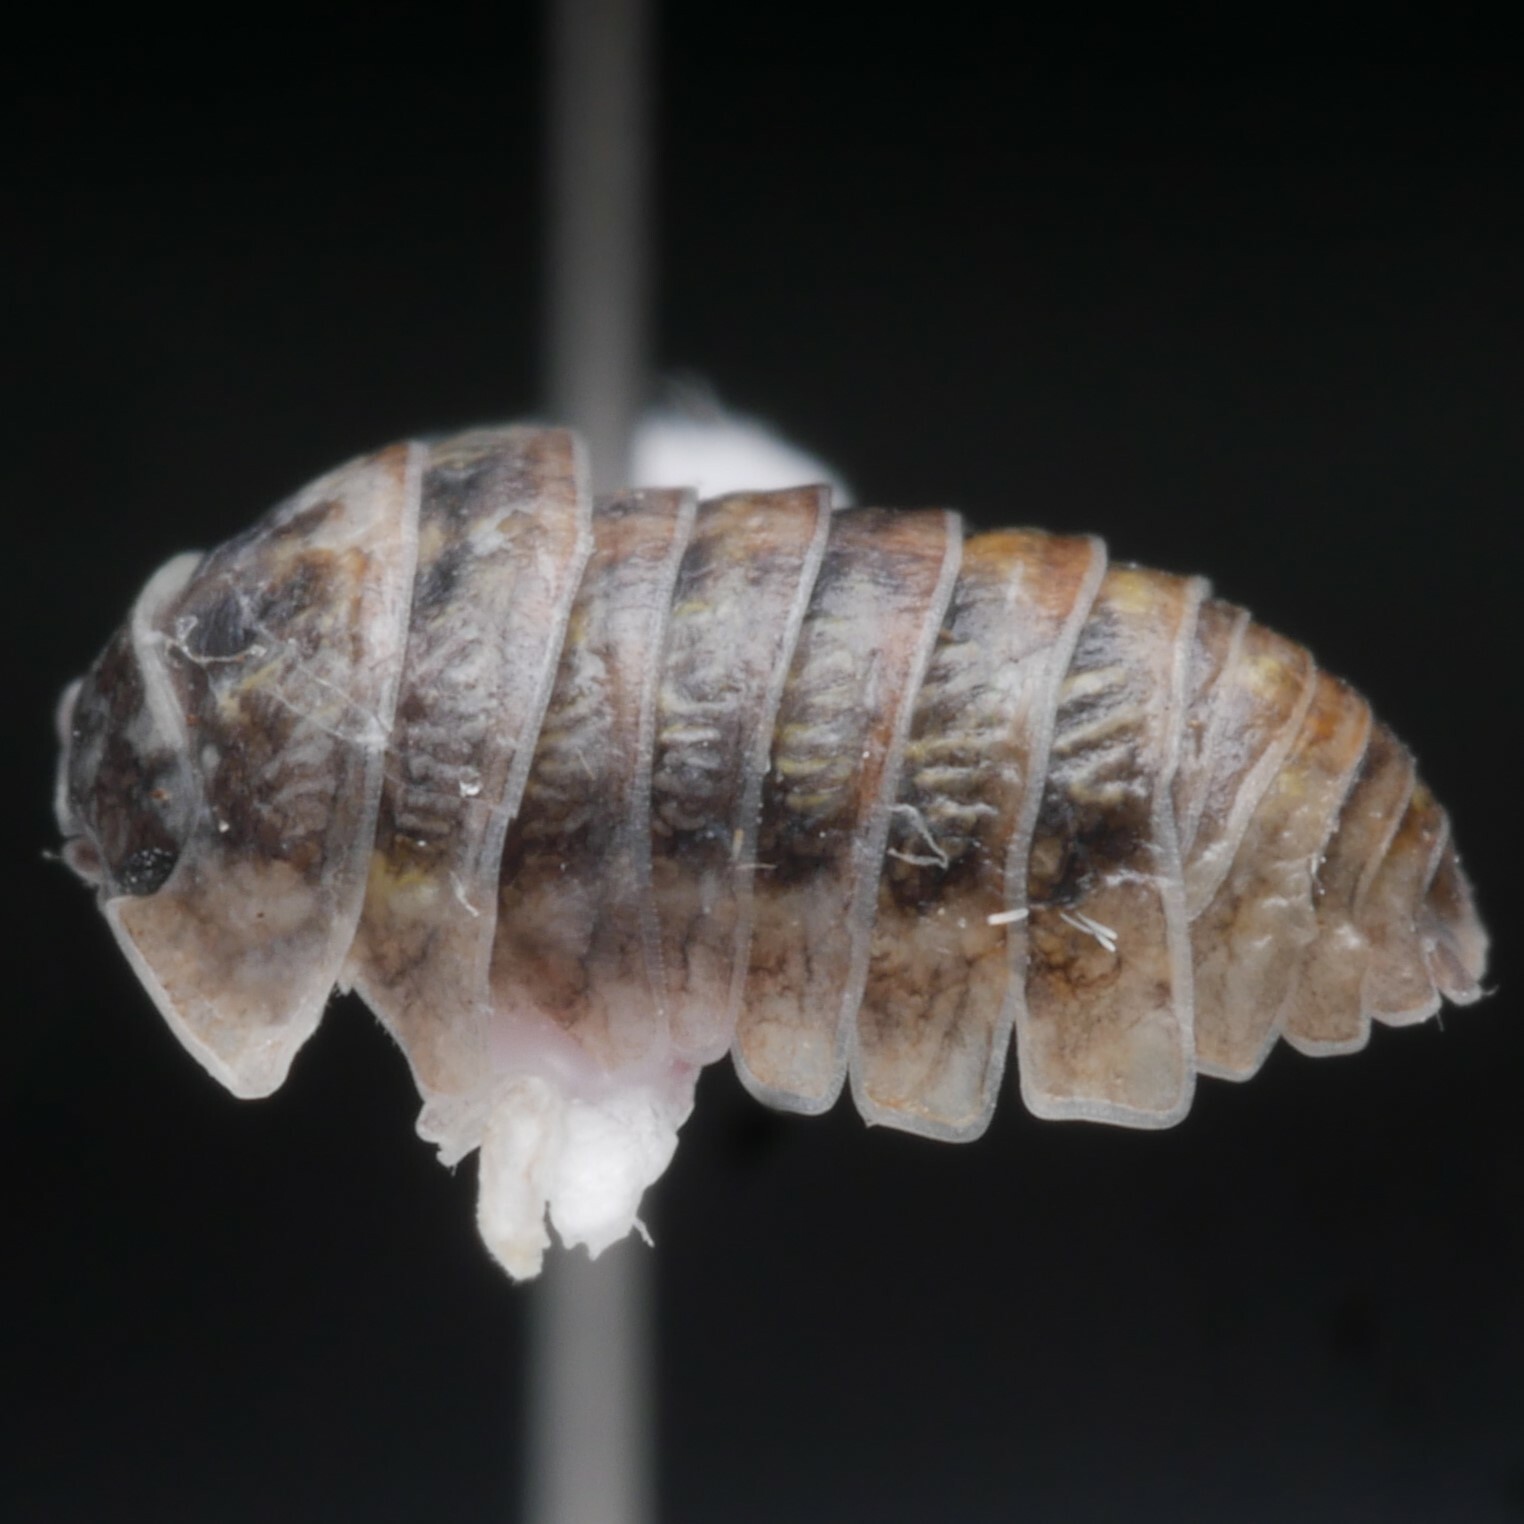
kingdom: Animalia
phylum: Arthropoda
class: Malacostraca
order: Isopoda
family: Armadillidiidae
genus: Armadillidium
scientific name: Armadillidium vulgare
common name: Common pill woodlouse
